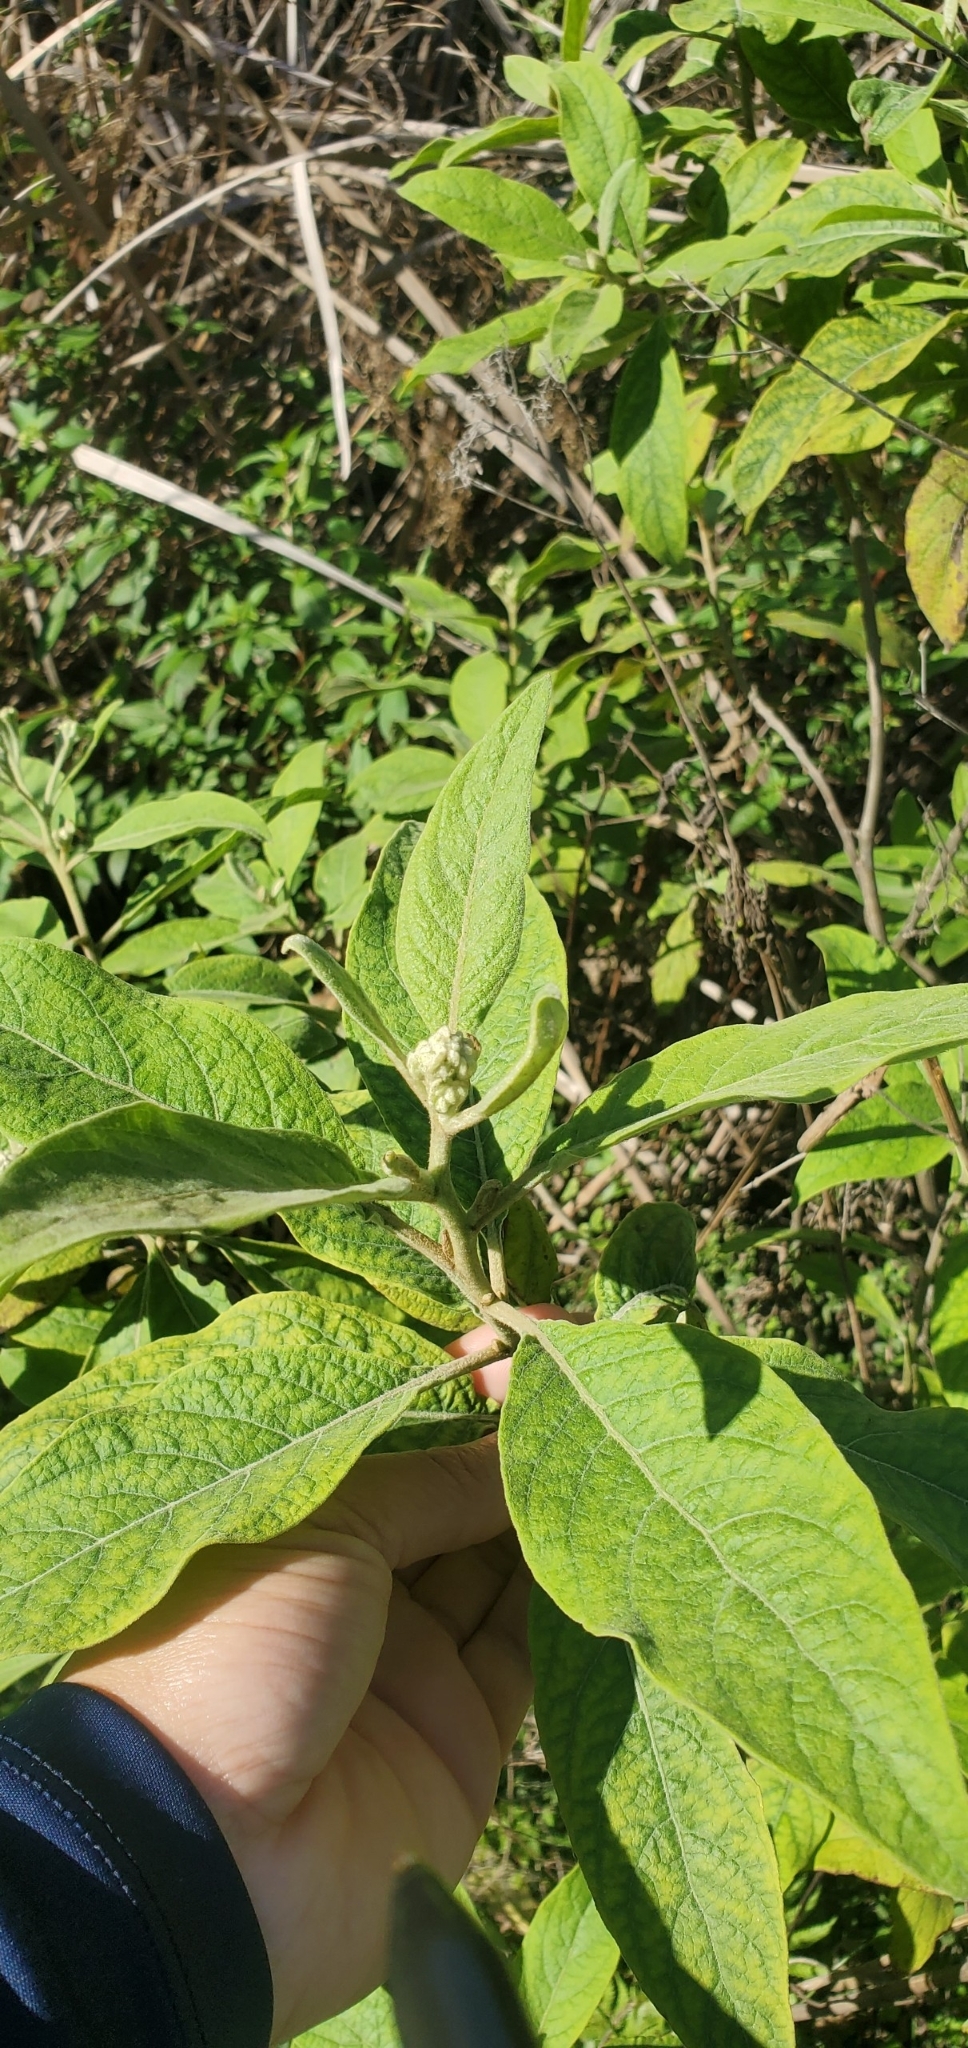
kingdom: Plantae
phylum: Tracheophyta
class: Magnoliopsida
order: Asterales
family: Asteraceae
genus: Pluchea
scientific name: Pluchea carolinensis
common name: Marsh fleabane
